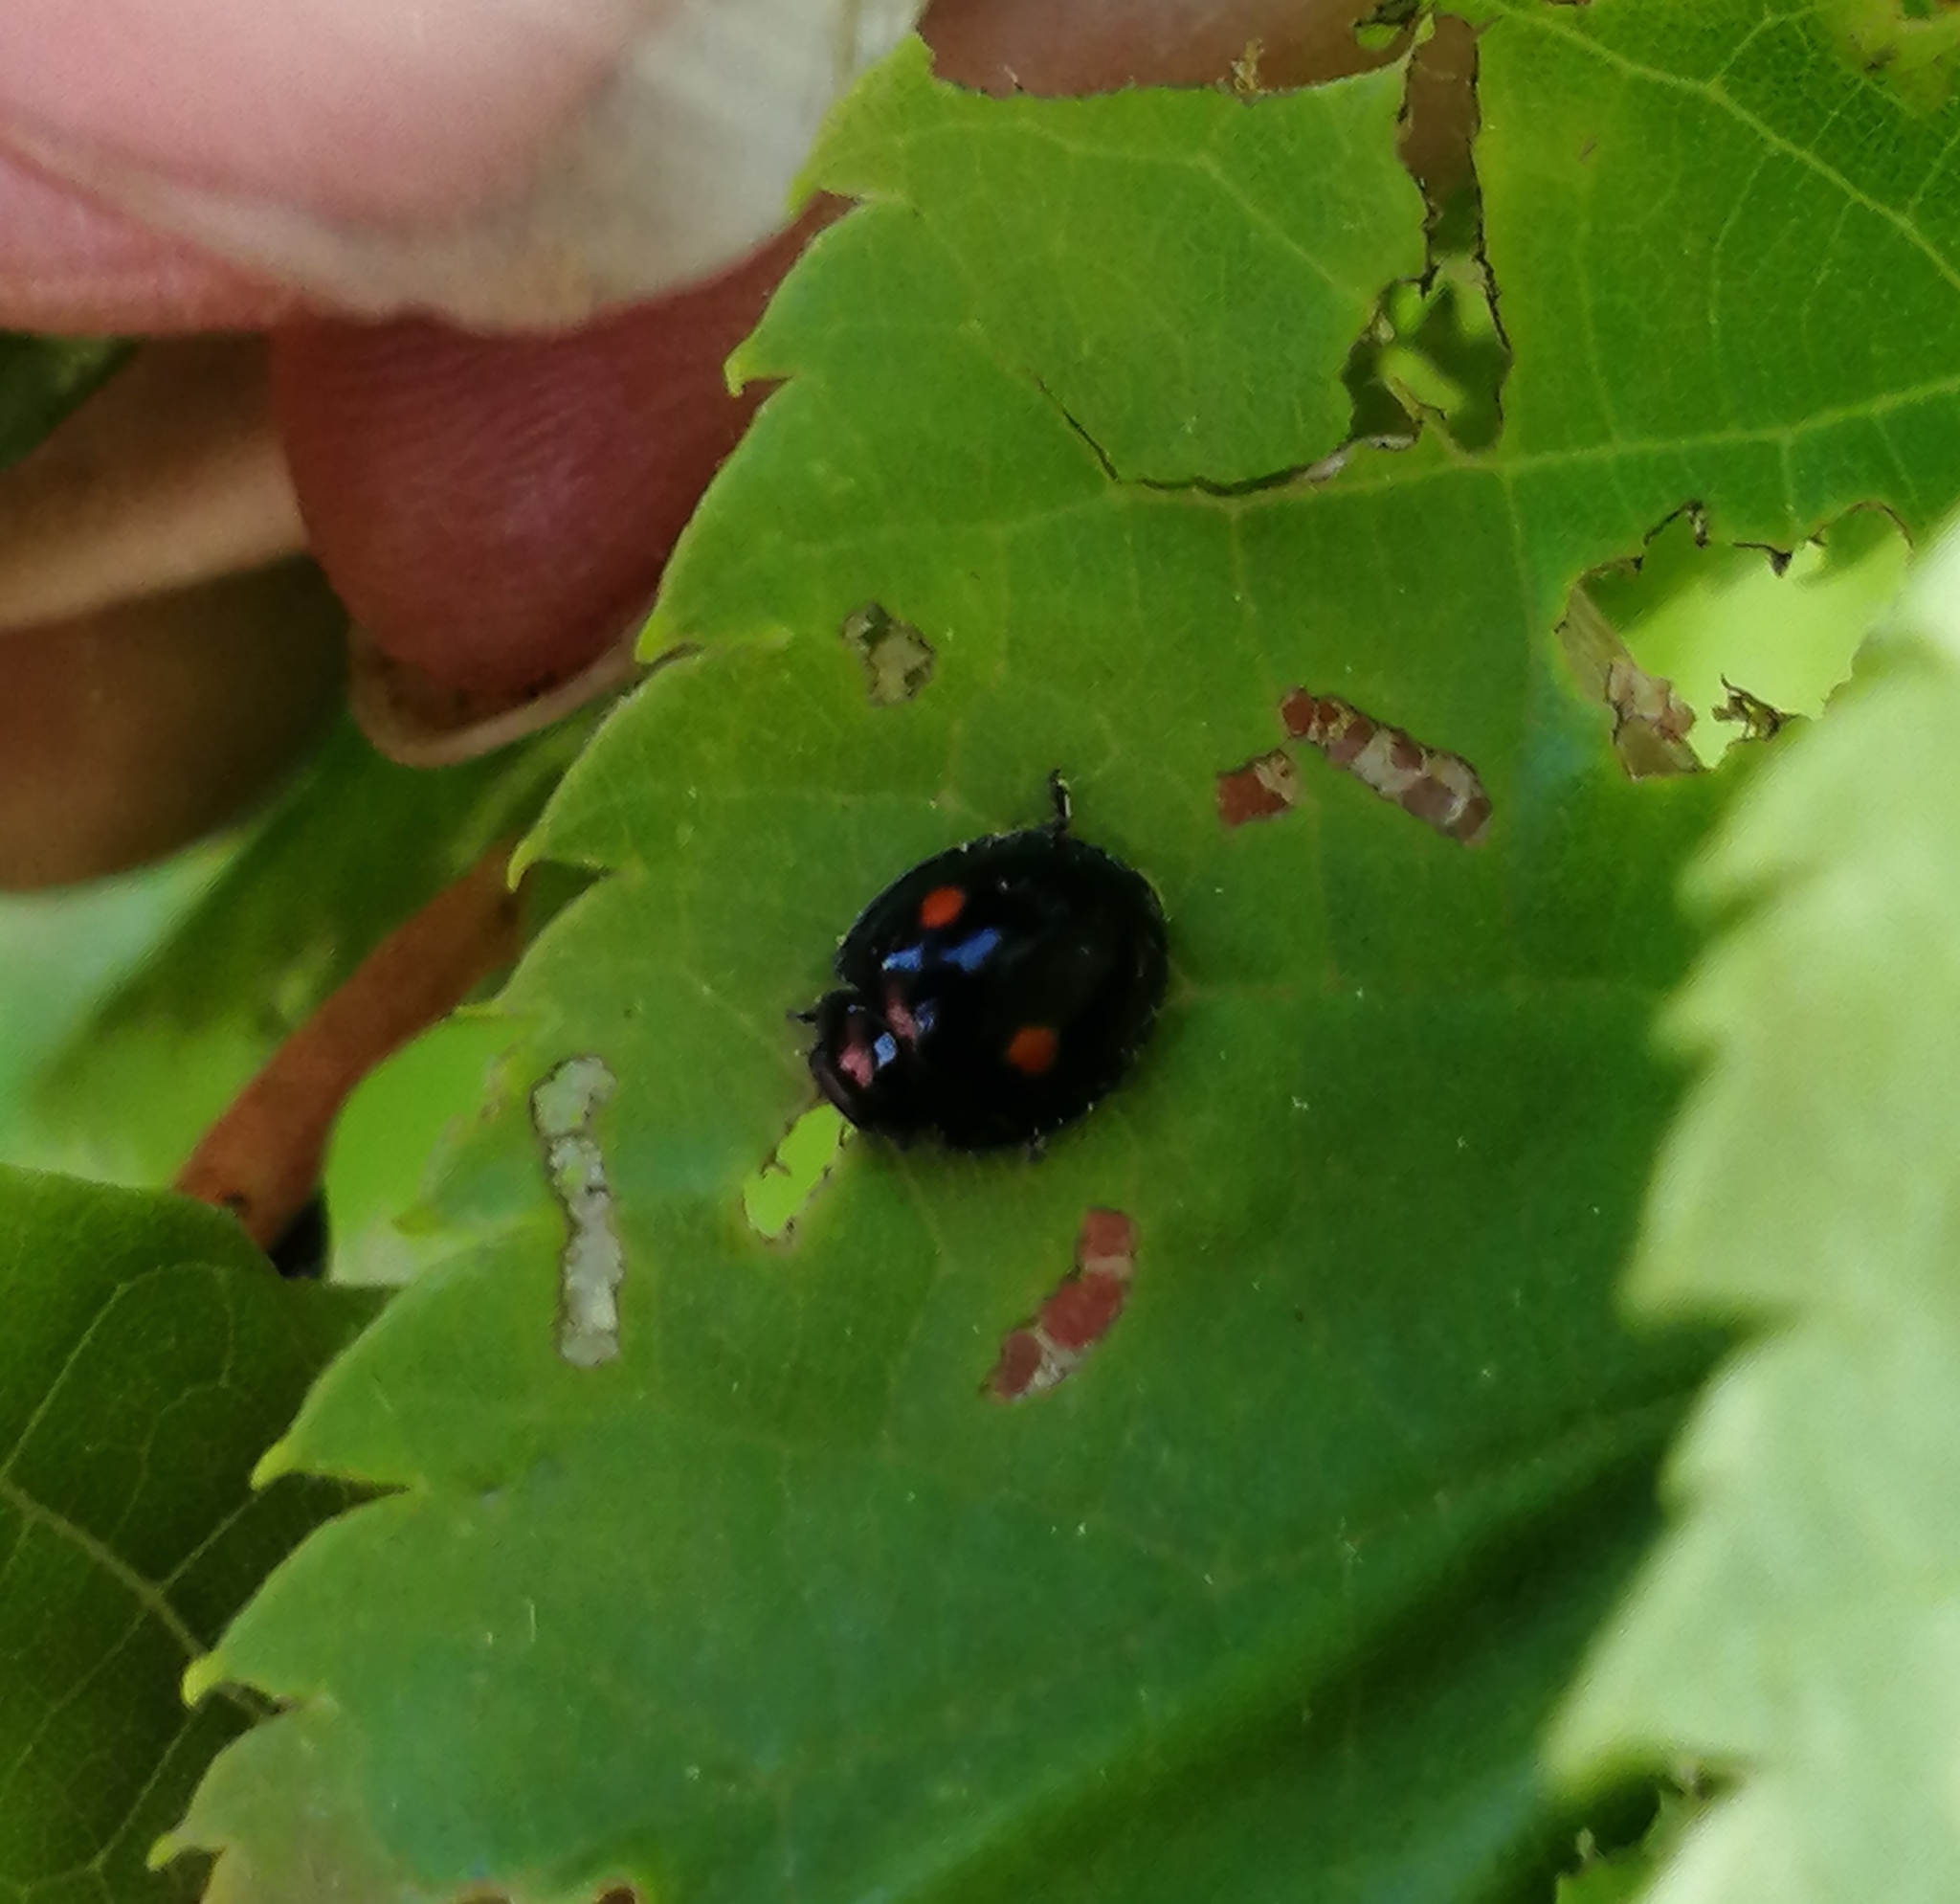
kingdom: Animalia
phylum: Arthropoda
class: Insecta
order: Coleoptera
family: Coccinellidae
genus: Chilocorus
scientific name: Chilocorus stigma
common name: Twicestabbed lady beetle
